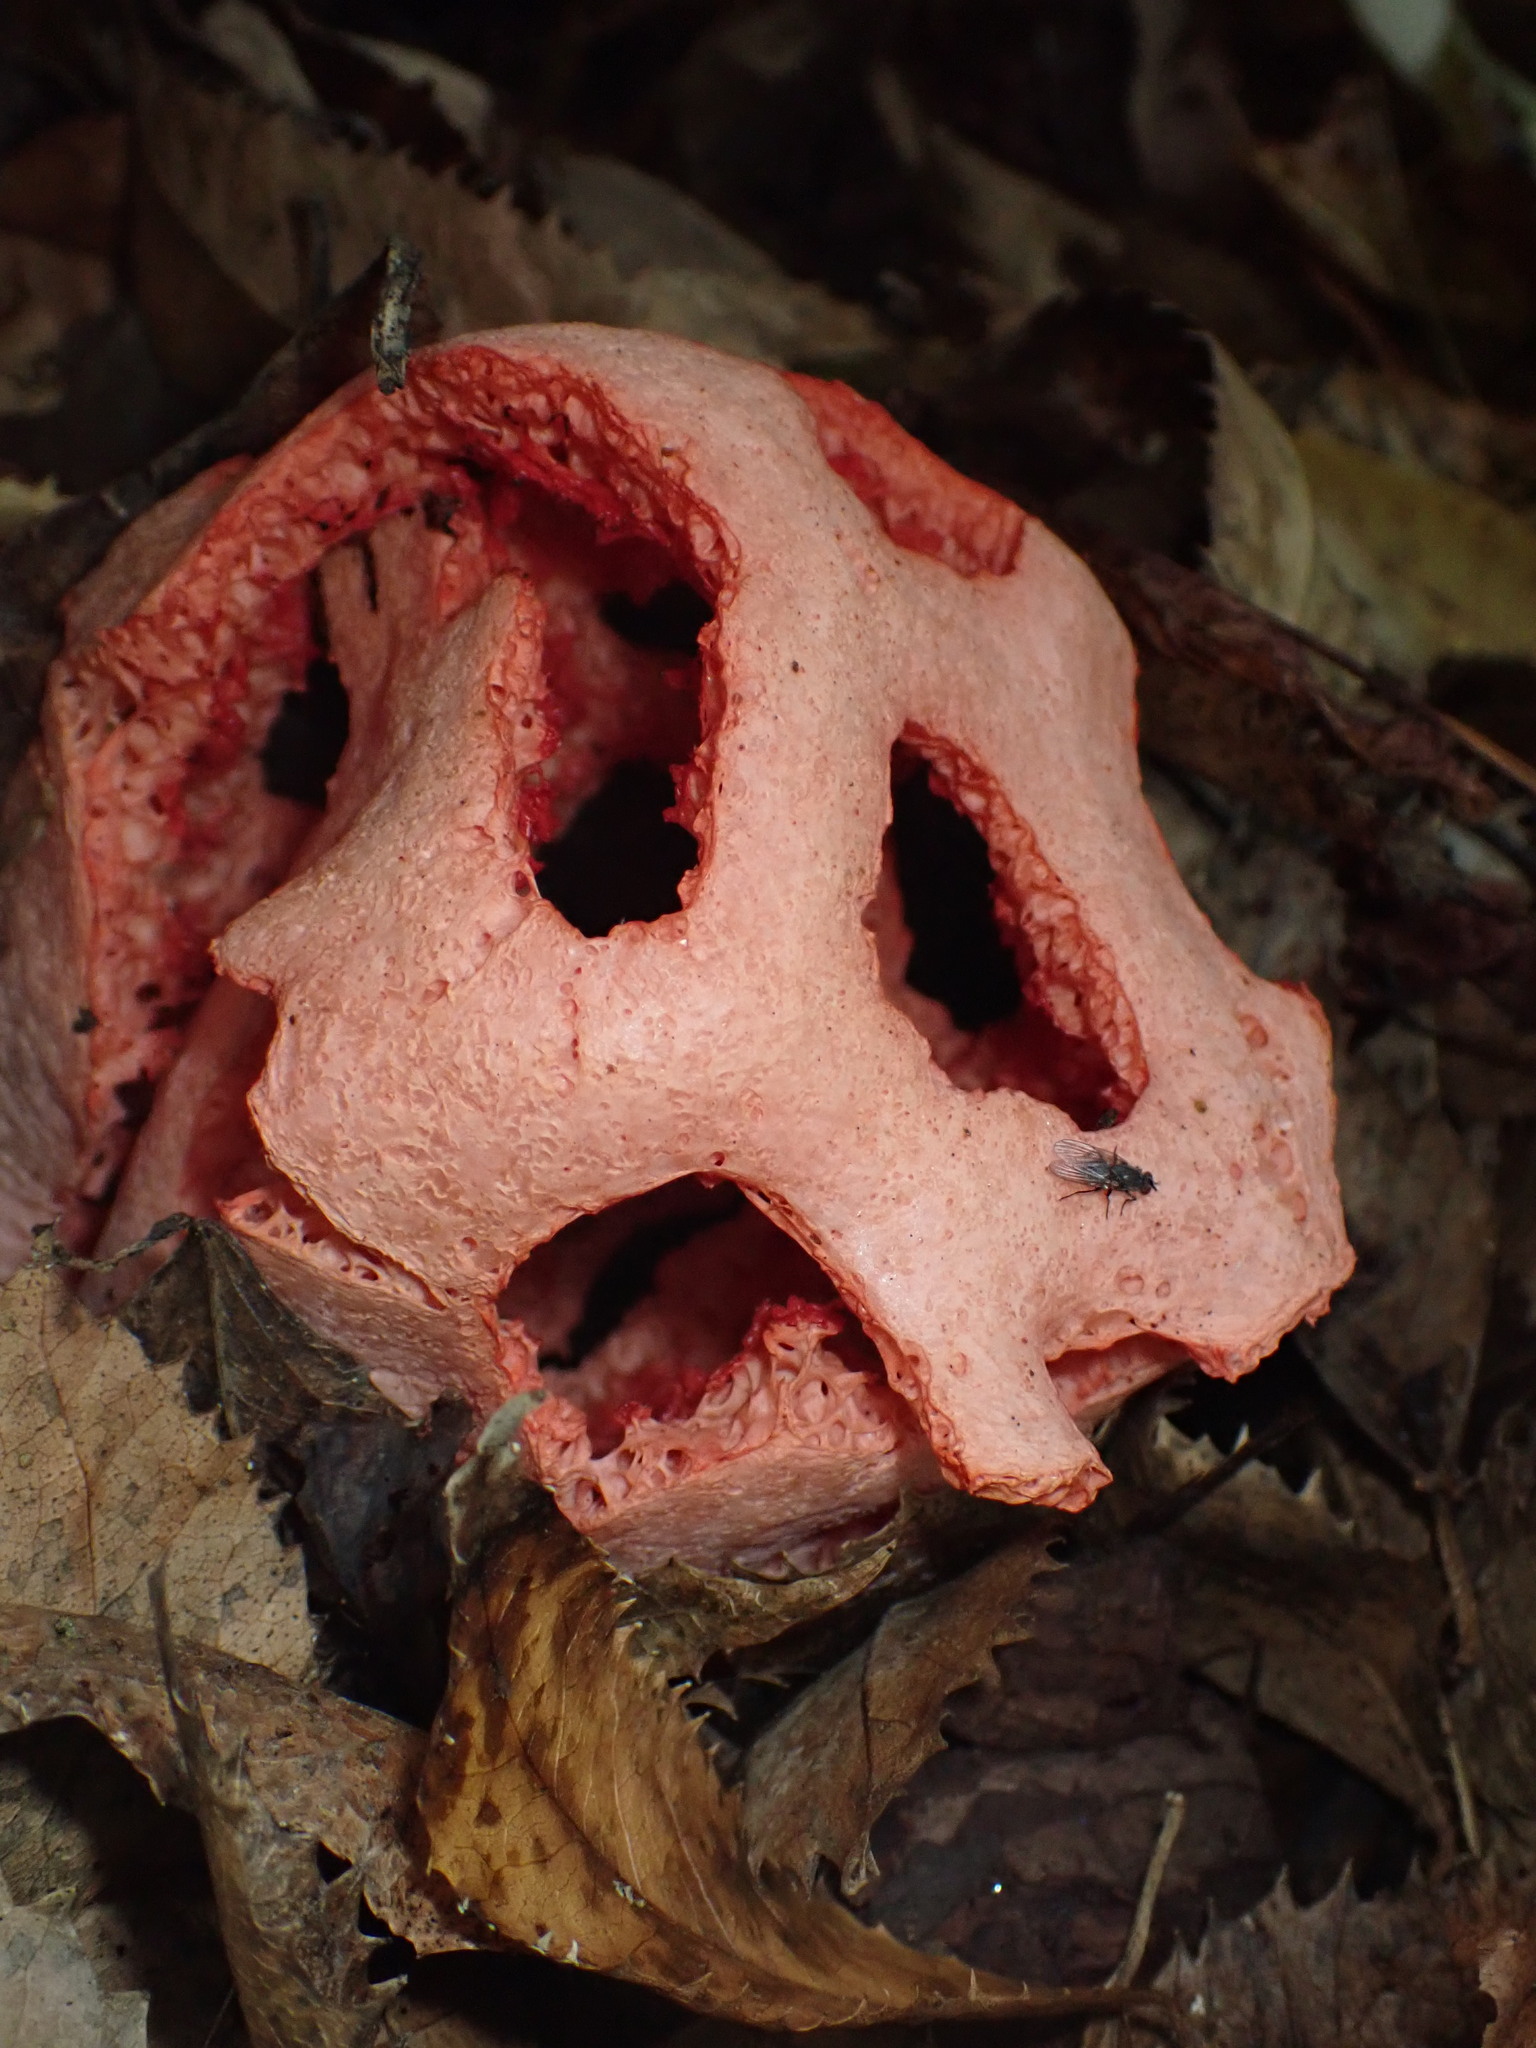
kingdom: Fungi
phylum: Basidiomycota
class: Agaricomycetes
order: Phallales
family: Phallaceae
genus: Clathrus
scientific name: Clathrus ruber
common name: Red cage
